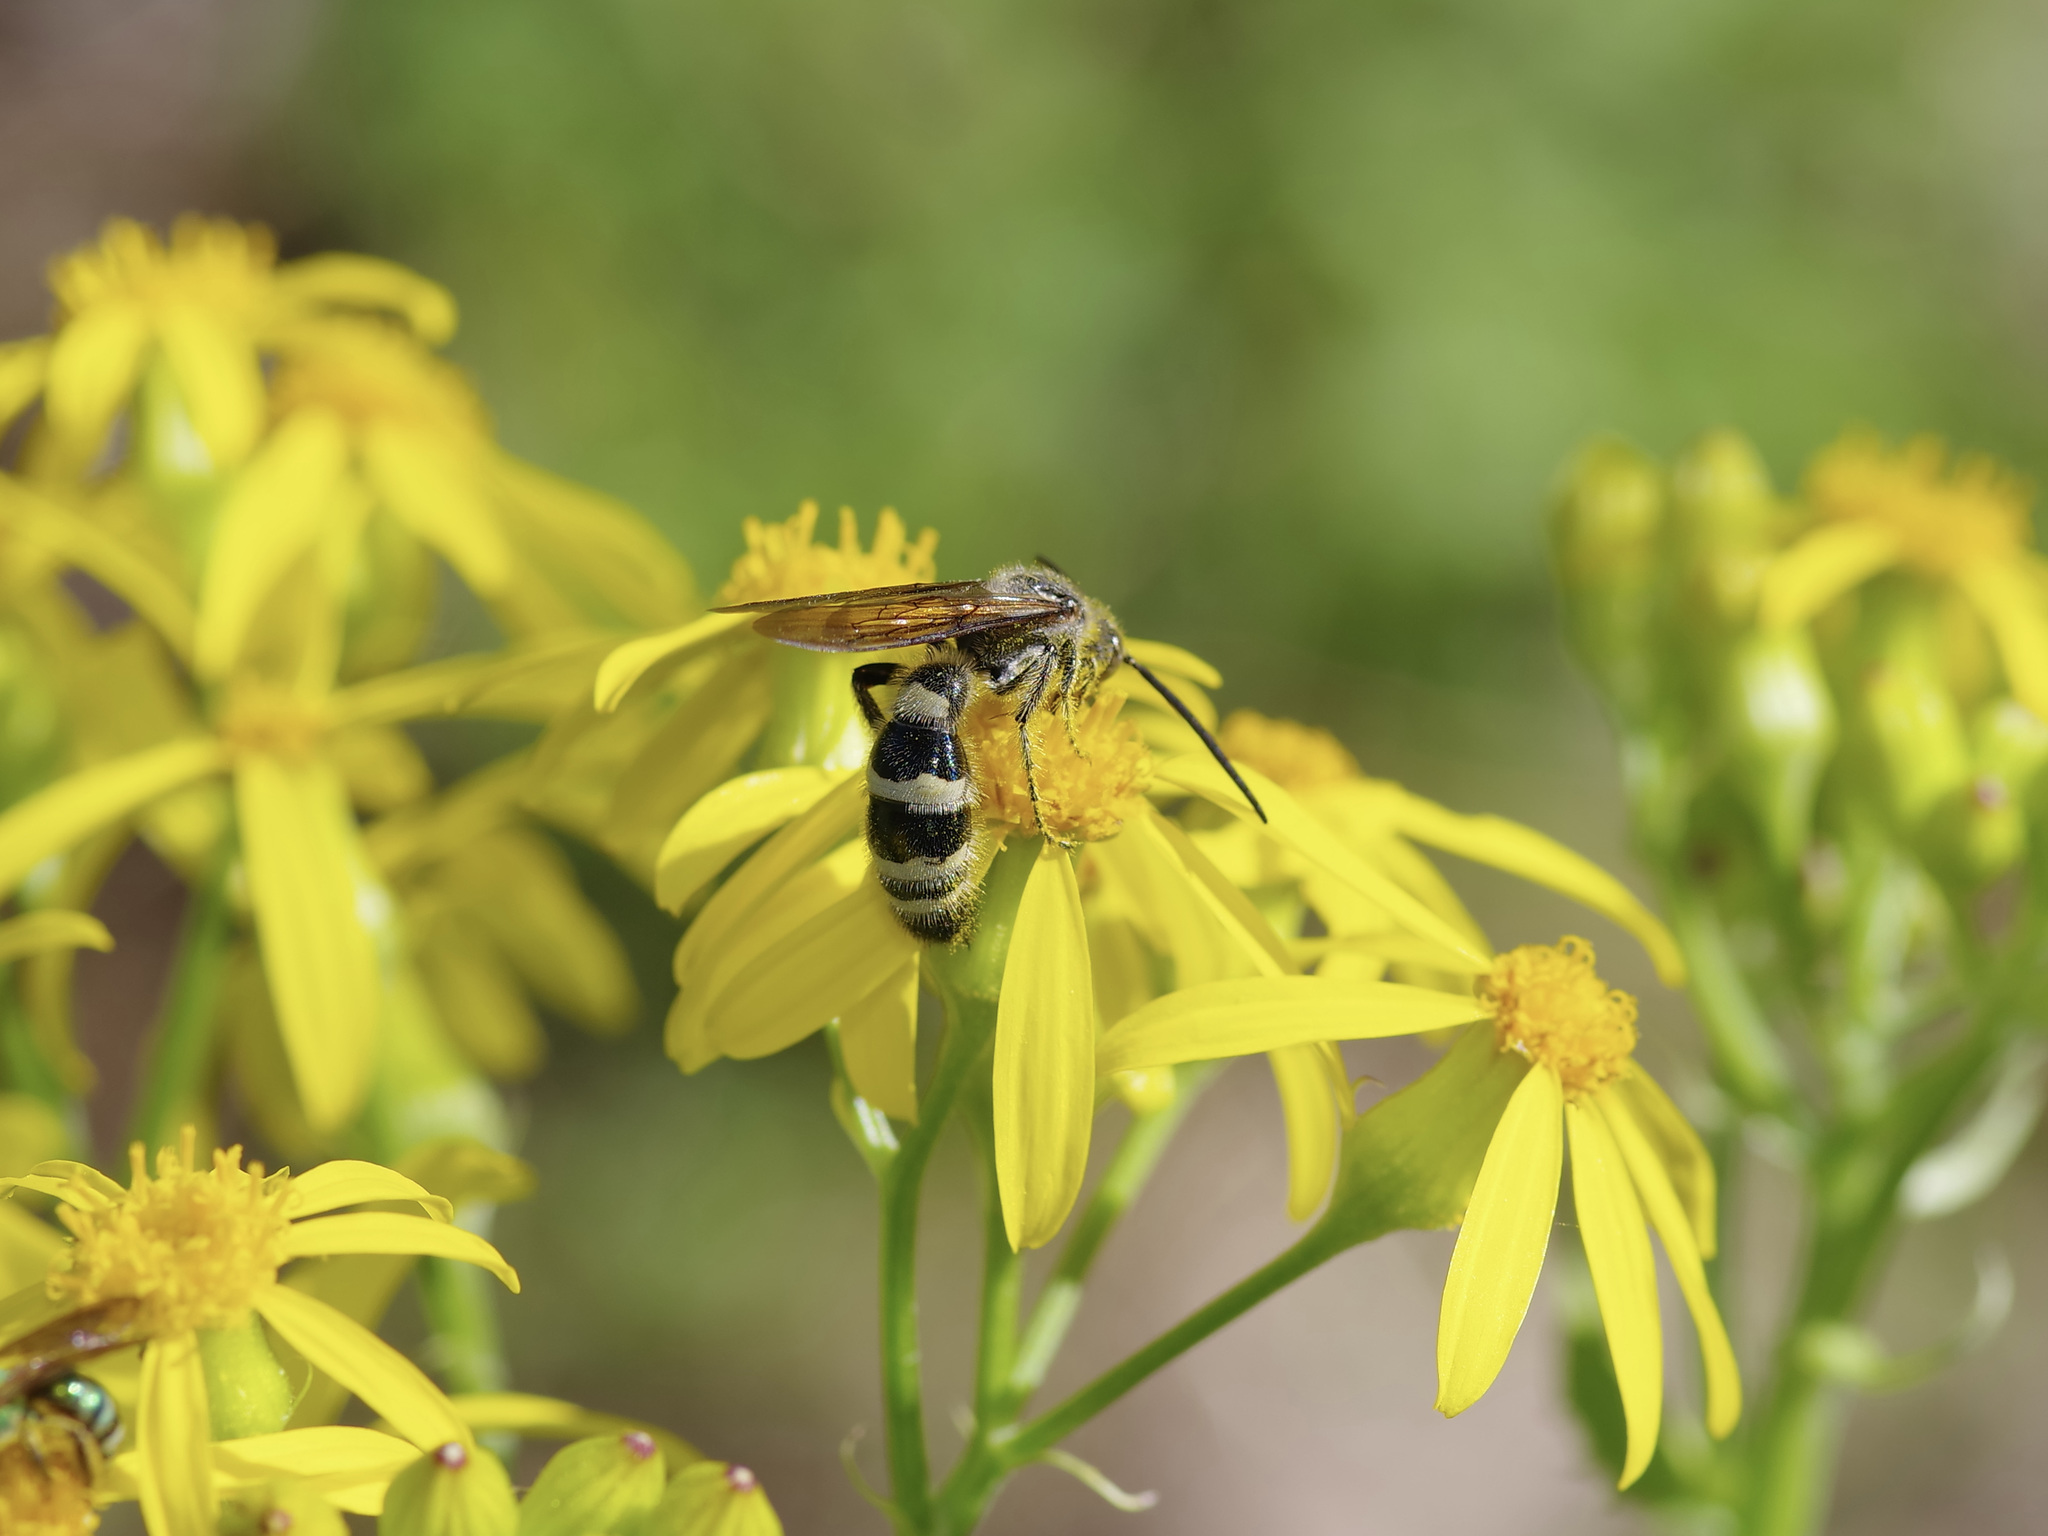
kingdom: Animalia
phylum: Arthropoda
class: Insecta
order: Hymenoptera
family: Scoliidae
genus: Dielis
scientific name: Dielis
